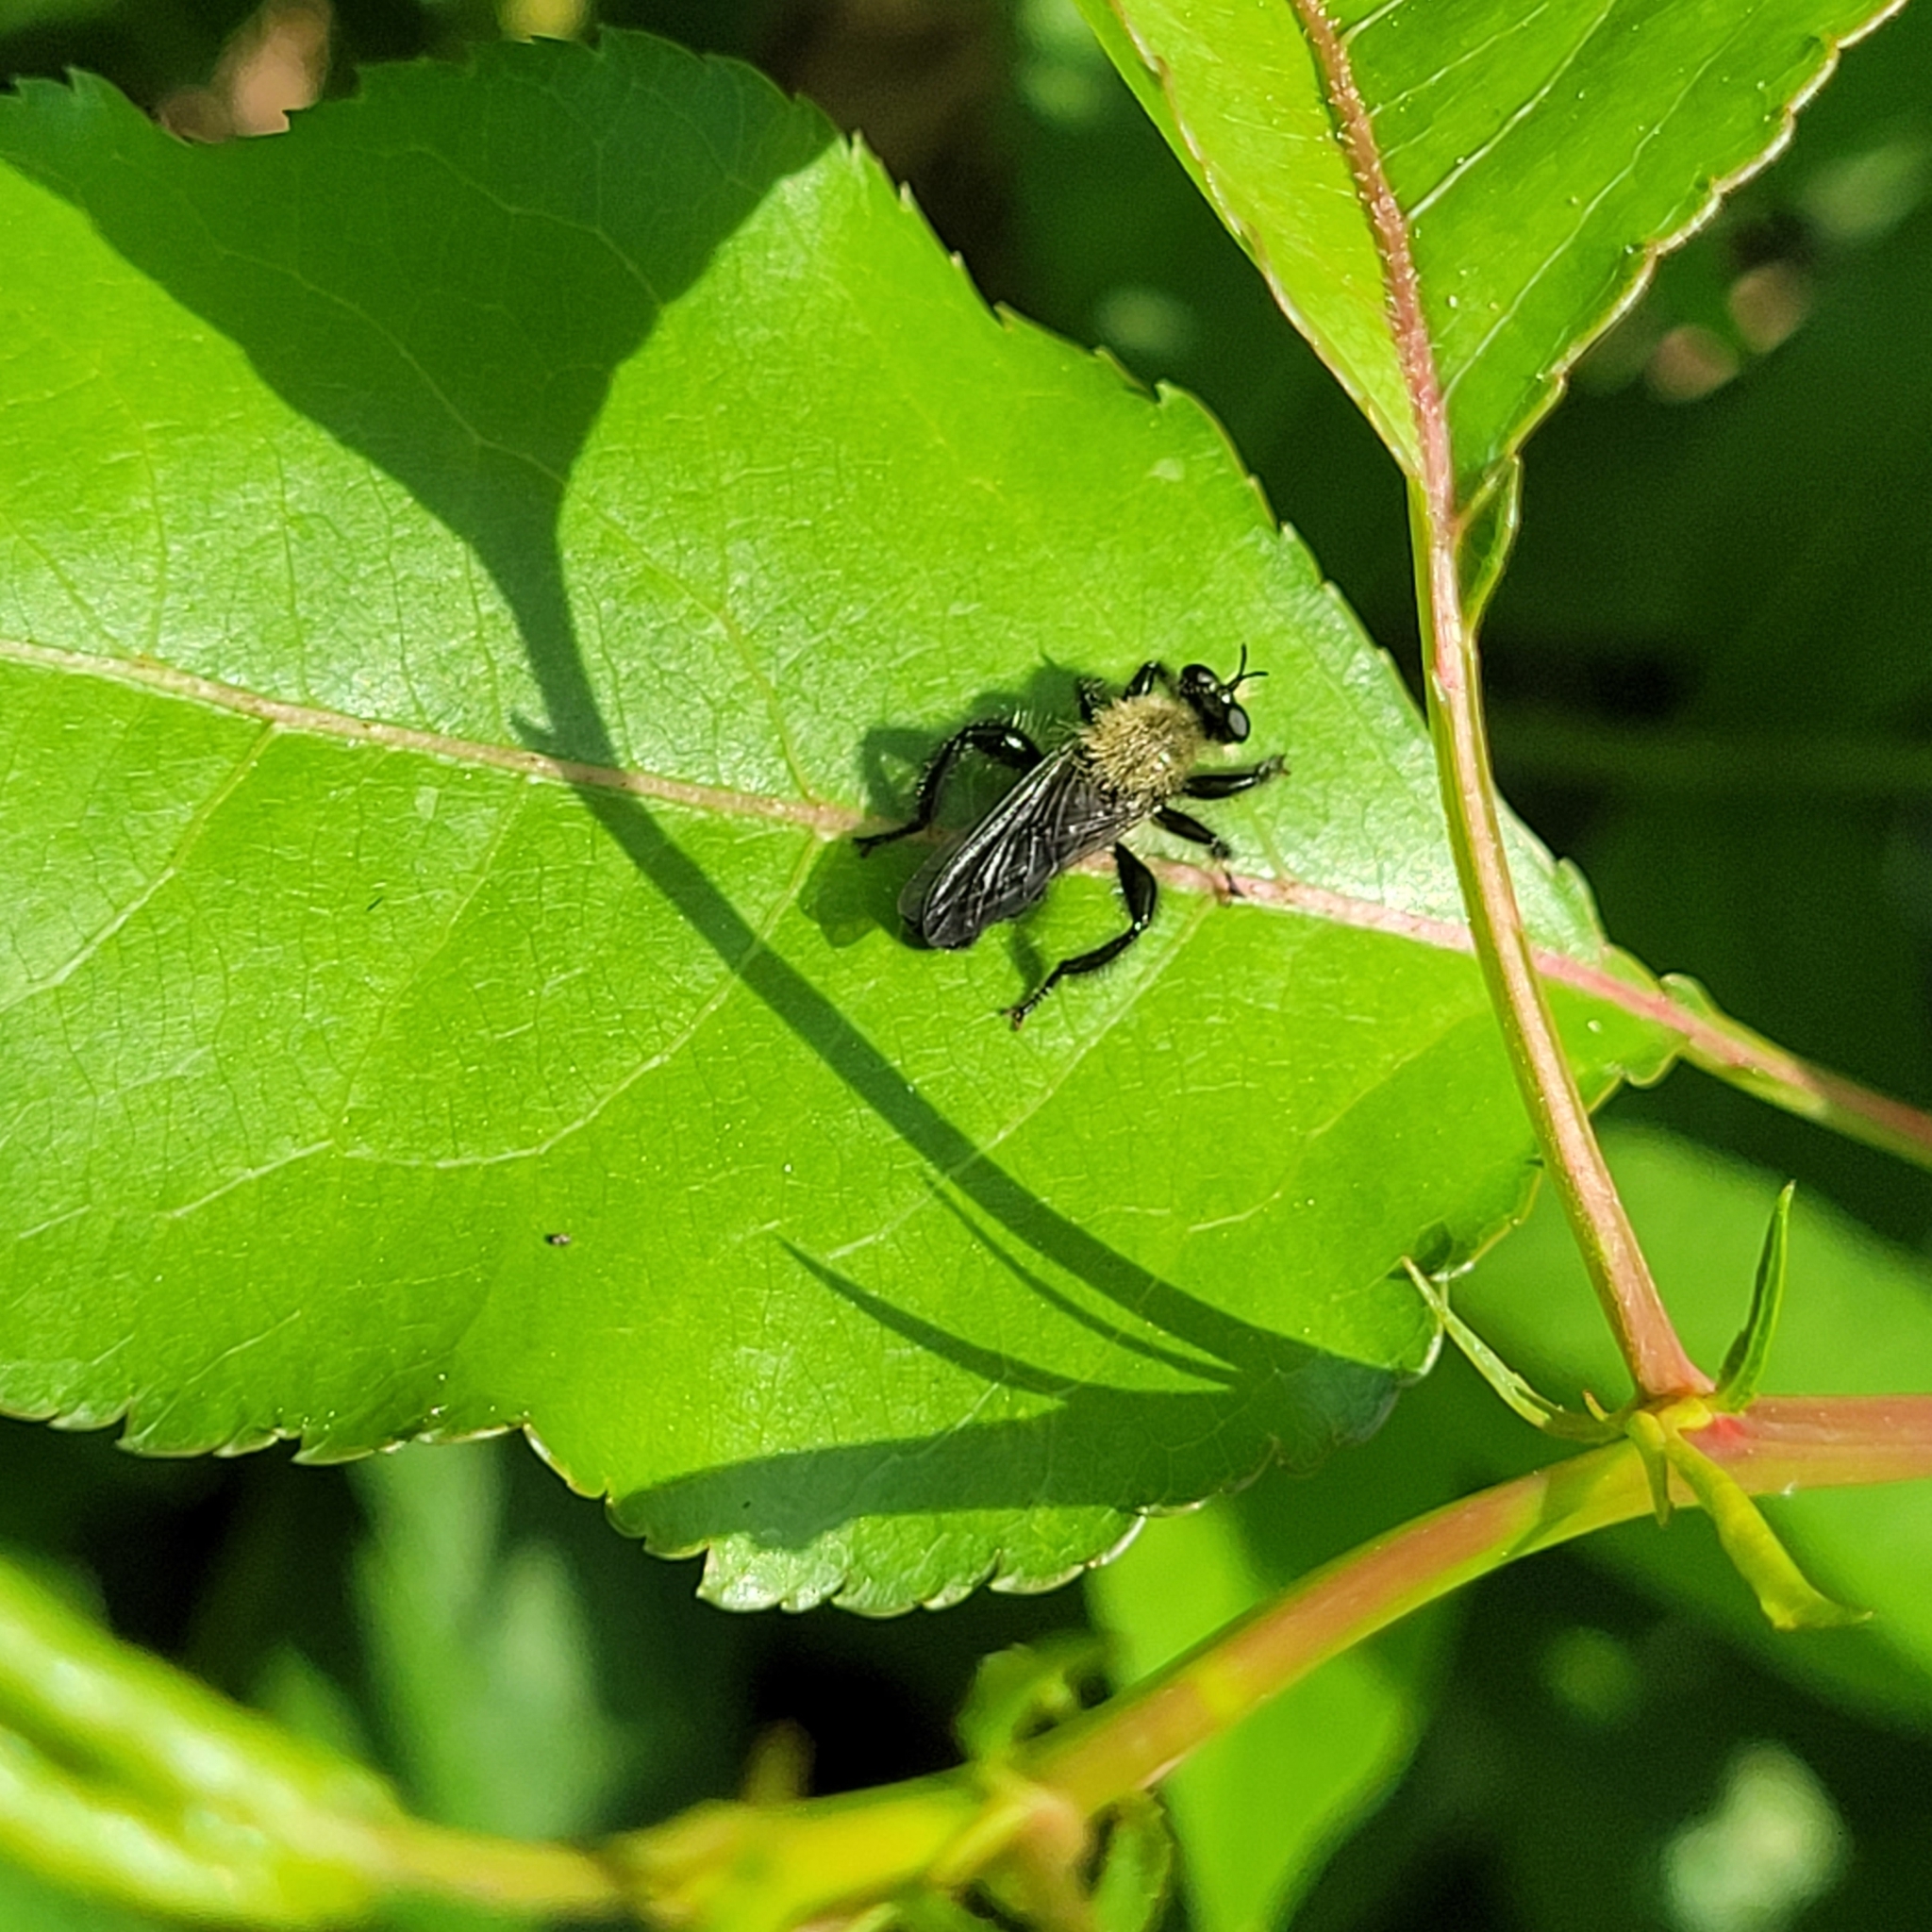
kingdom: Animalia
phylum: Arthropoda
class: Insecta
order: Diptera
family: Asilidae
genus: Laphria
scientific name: Laphria flavicollis
